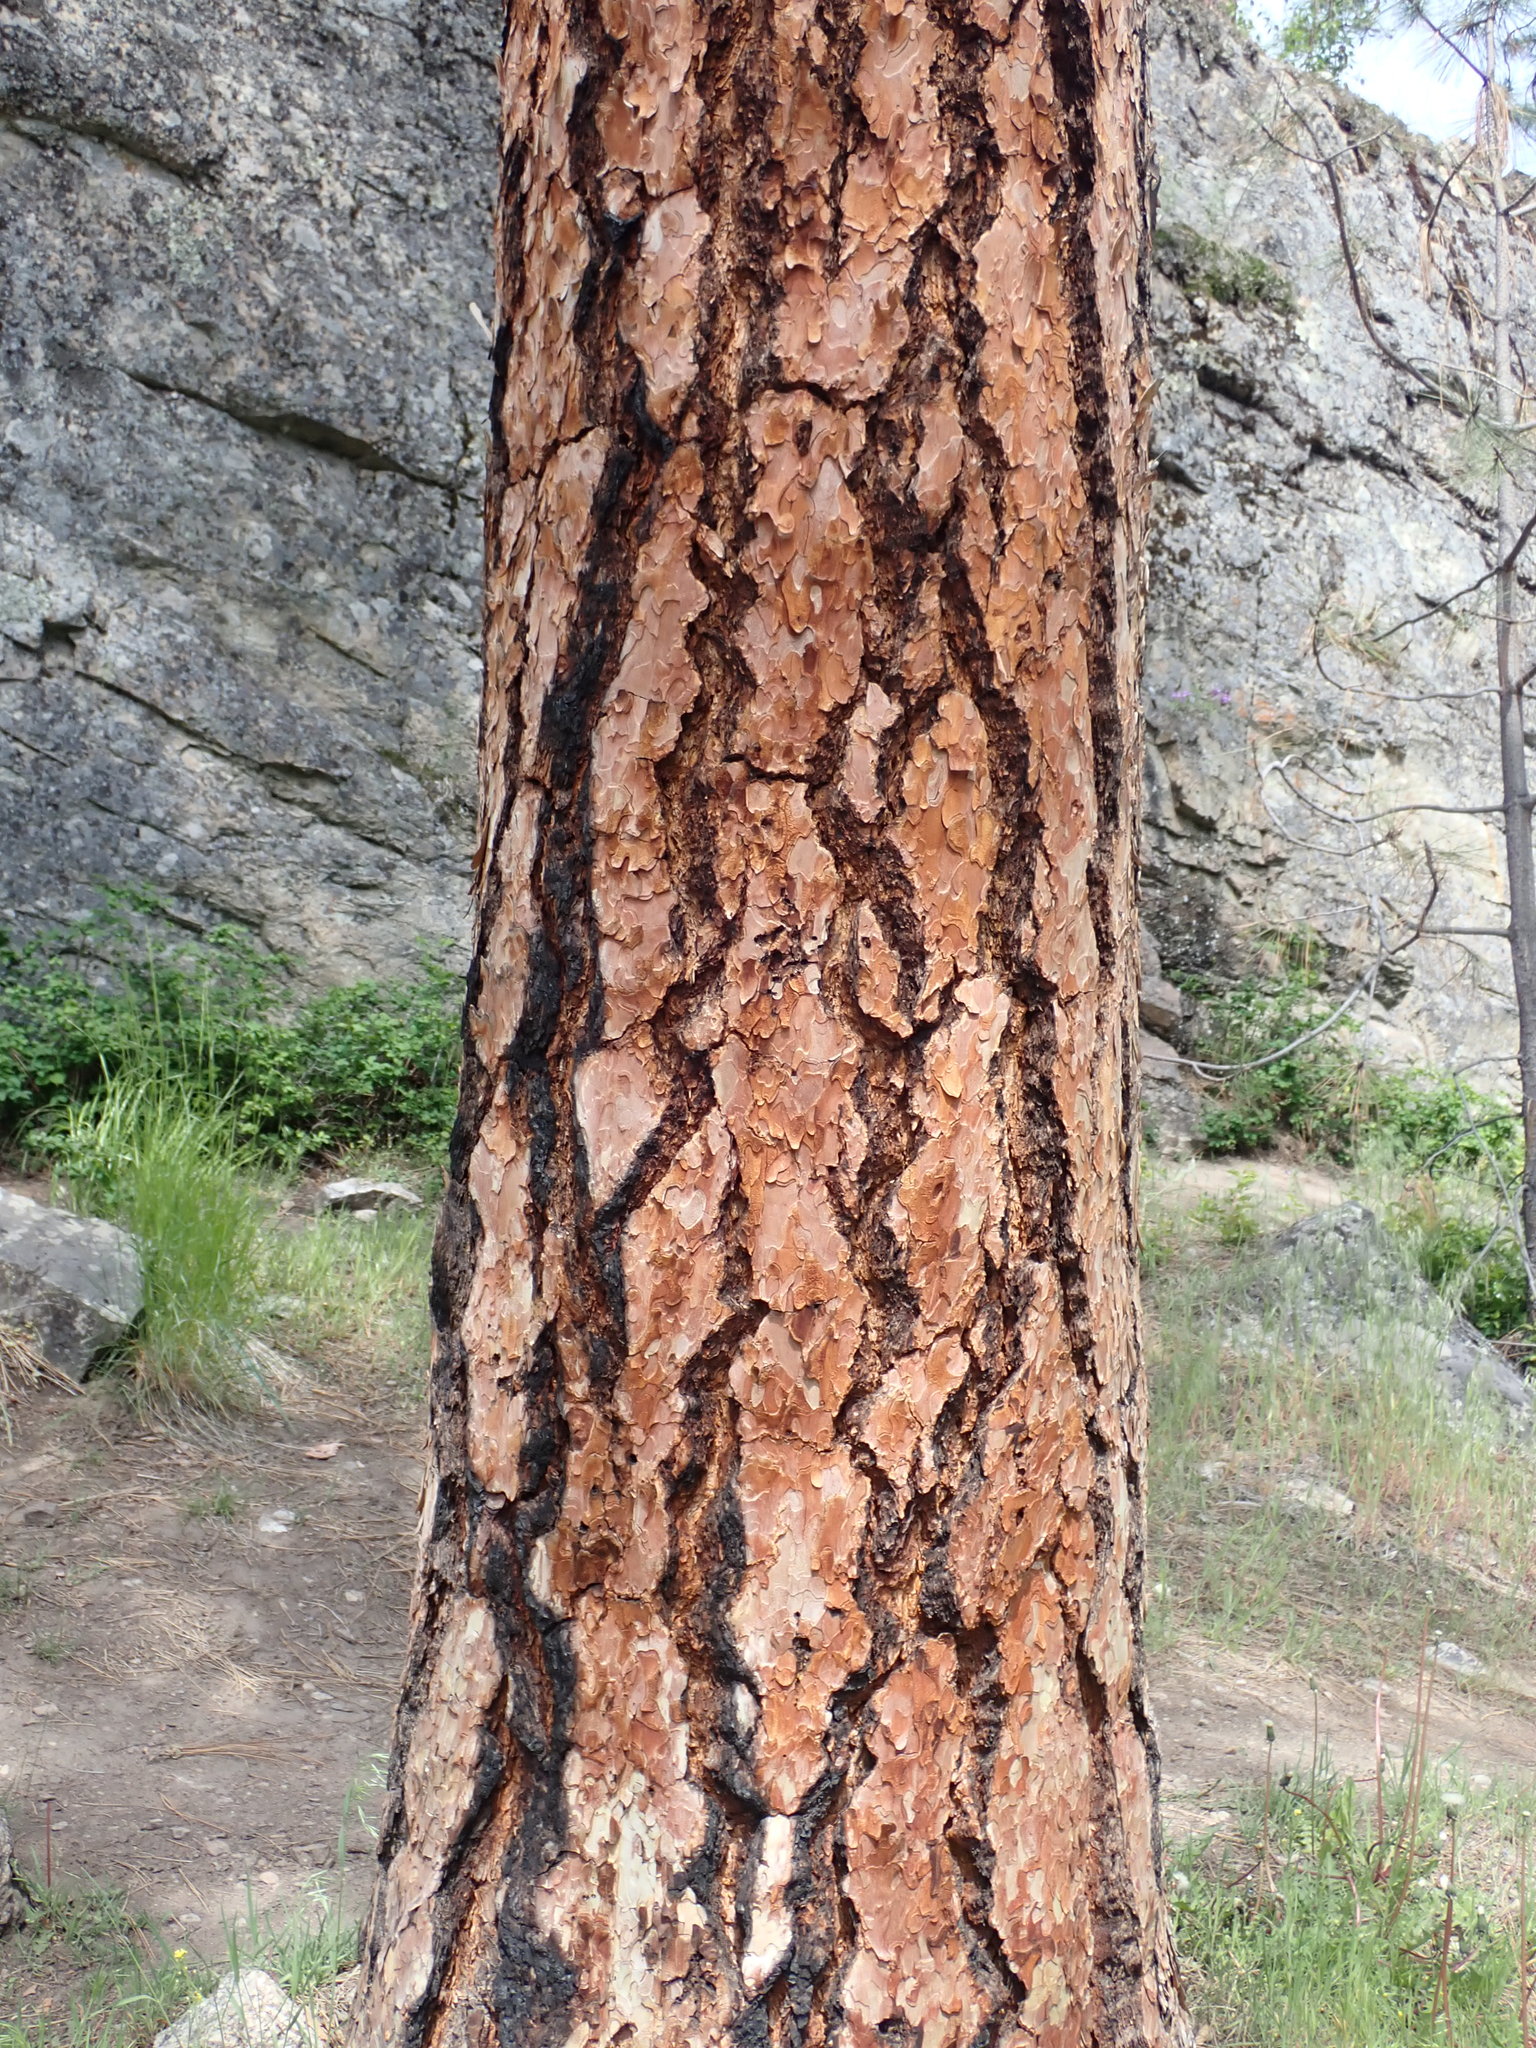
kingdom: Plantae
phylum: Tracheophyta
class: Pinopsida
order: Pinales
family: Pinaceae
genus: Pinus
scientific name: Pinus ponderosa
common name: Western yellow-pine
